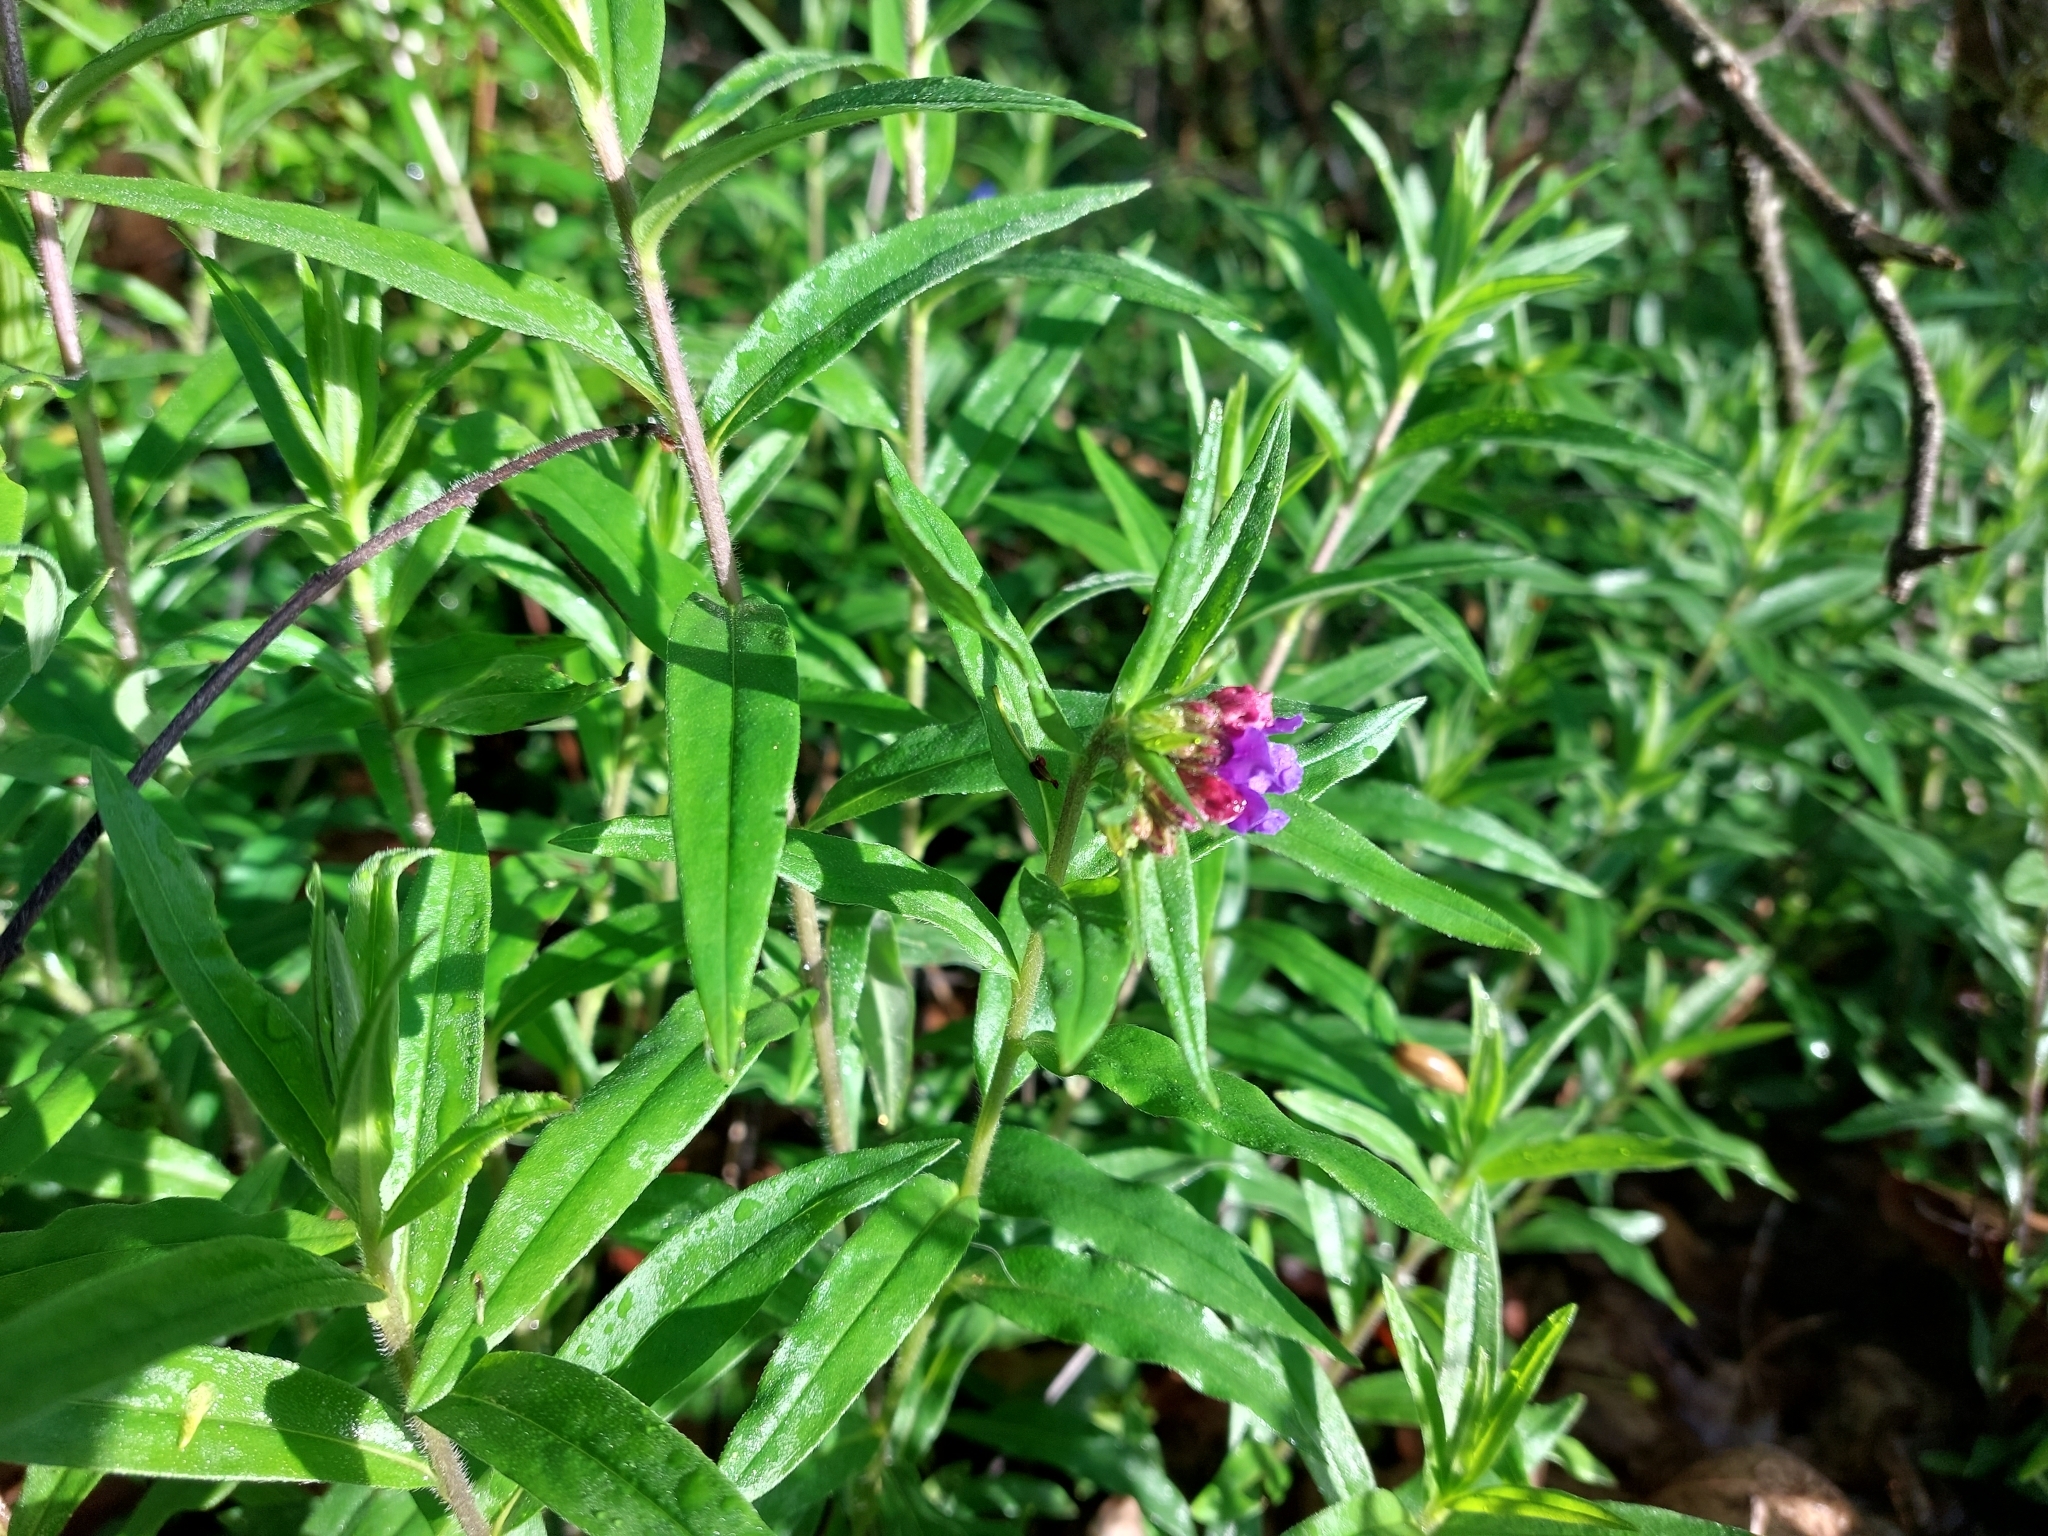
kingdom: Plantae
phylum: Tracheophyta
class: Magnoliopsida
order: Boraginales
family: Boraginaceae
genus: Aegonychon
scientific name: Aegonychon purpurocaeruleum
